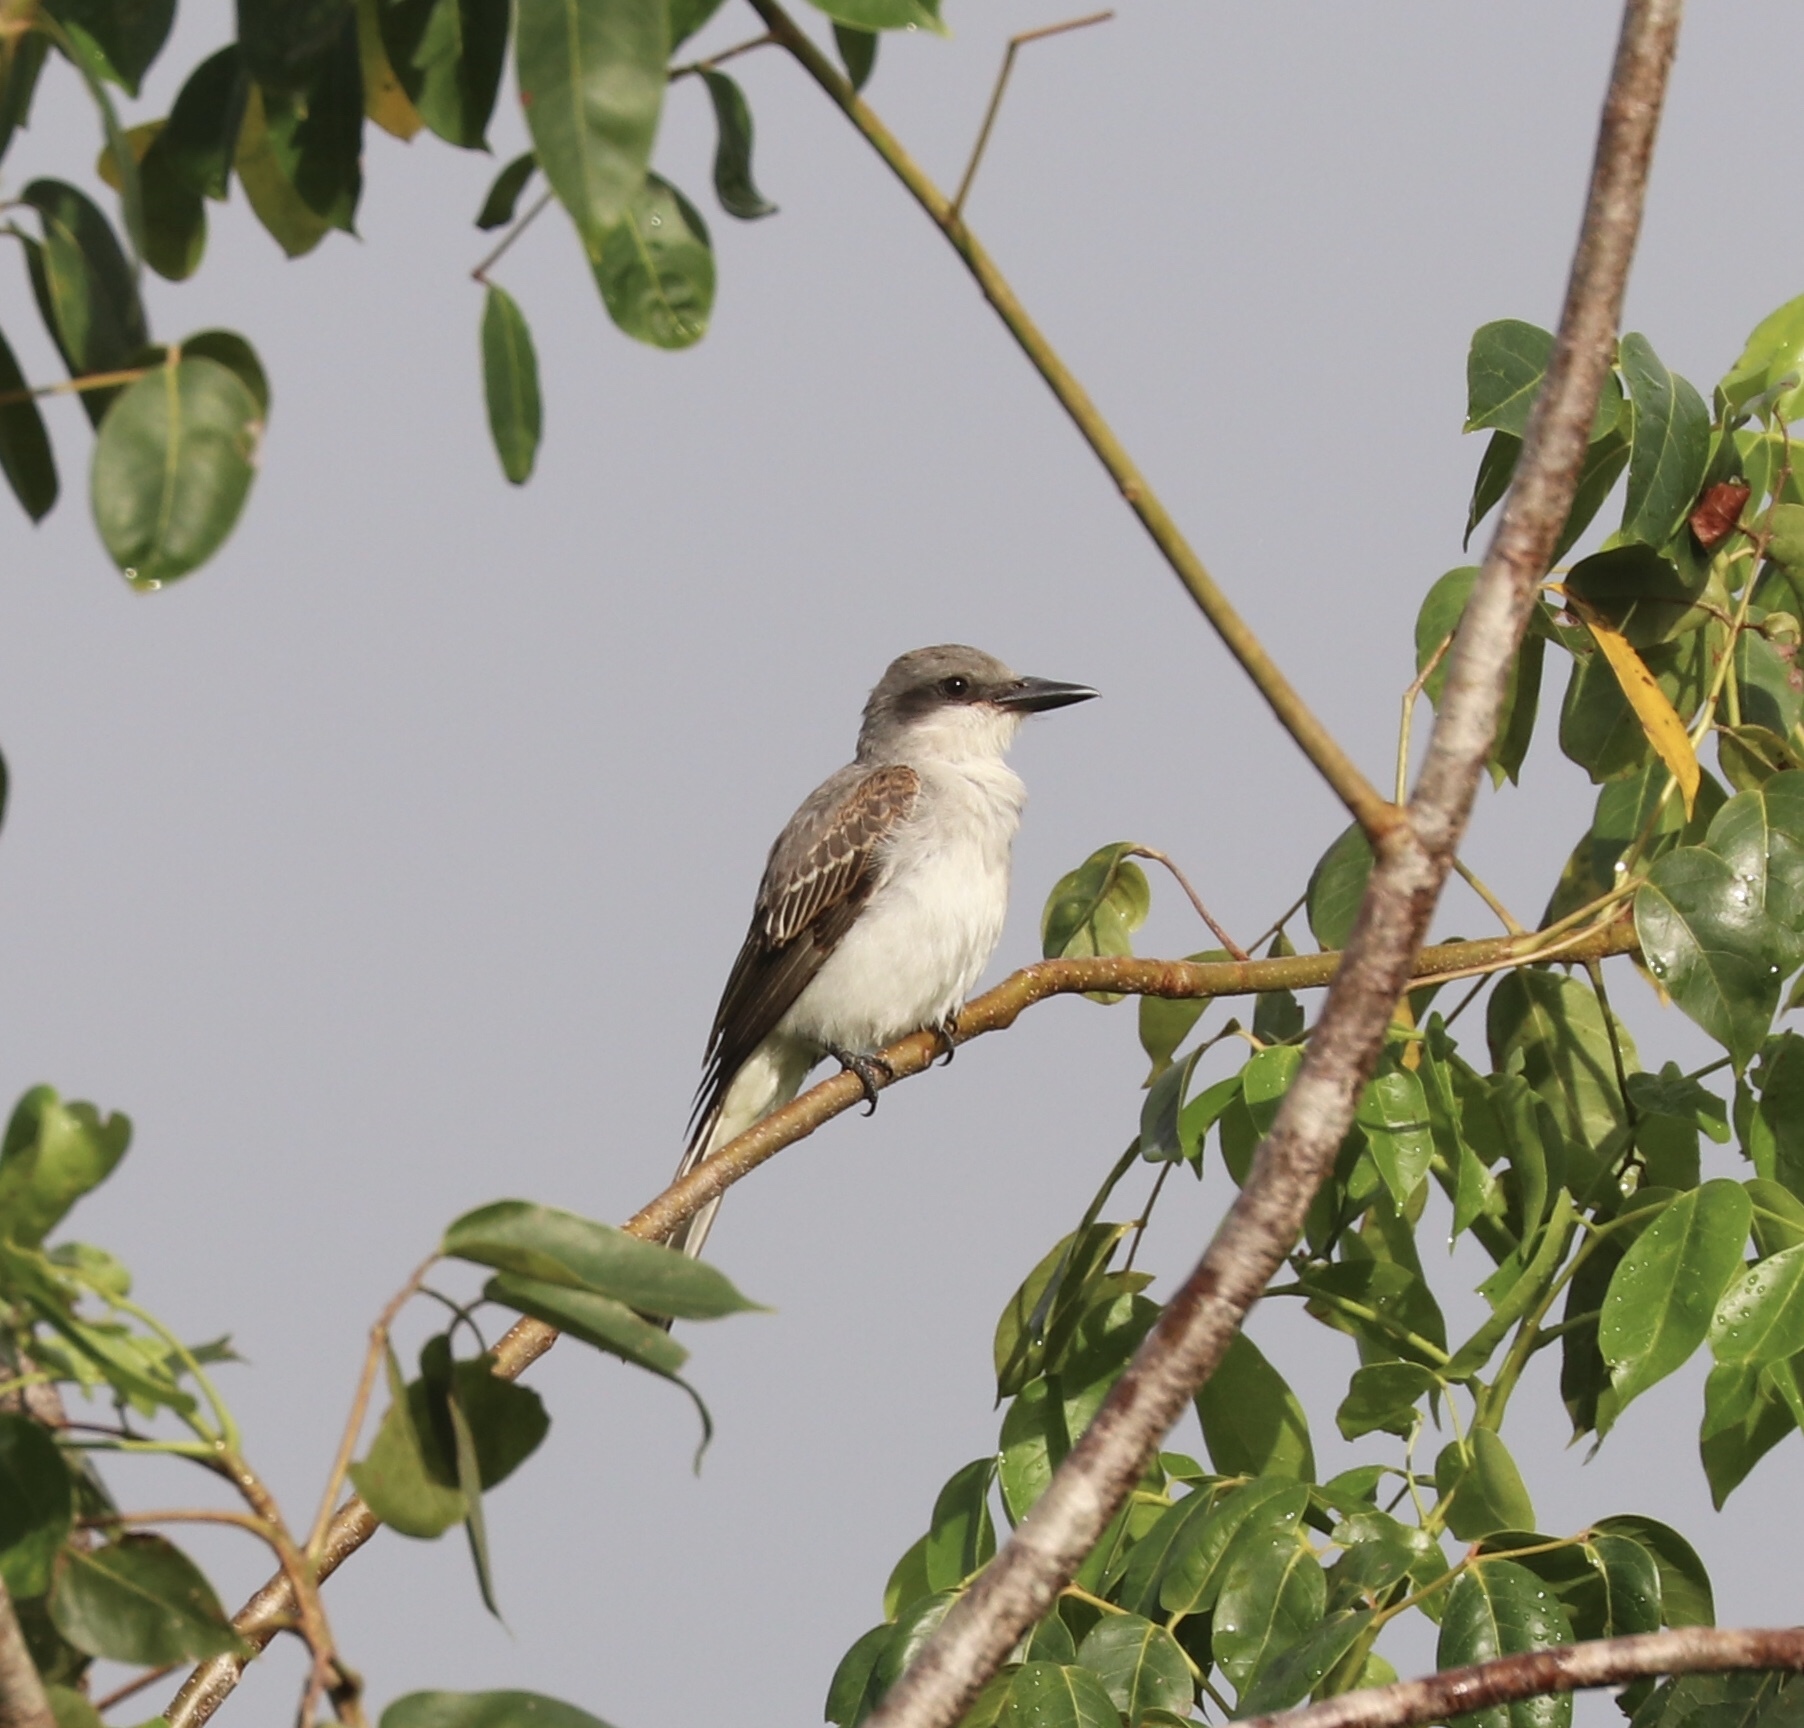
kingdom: Animalia
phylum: Chordata
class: Aves
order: Passeriformes
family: Tyrannidae
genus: Tyrannus
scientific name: Tyrannus dominicensis
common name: Gray kingbird
